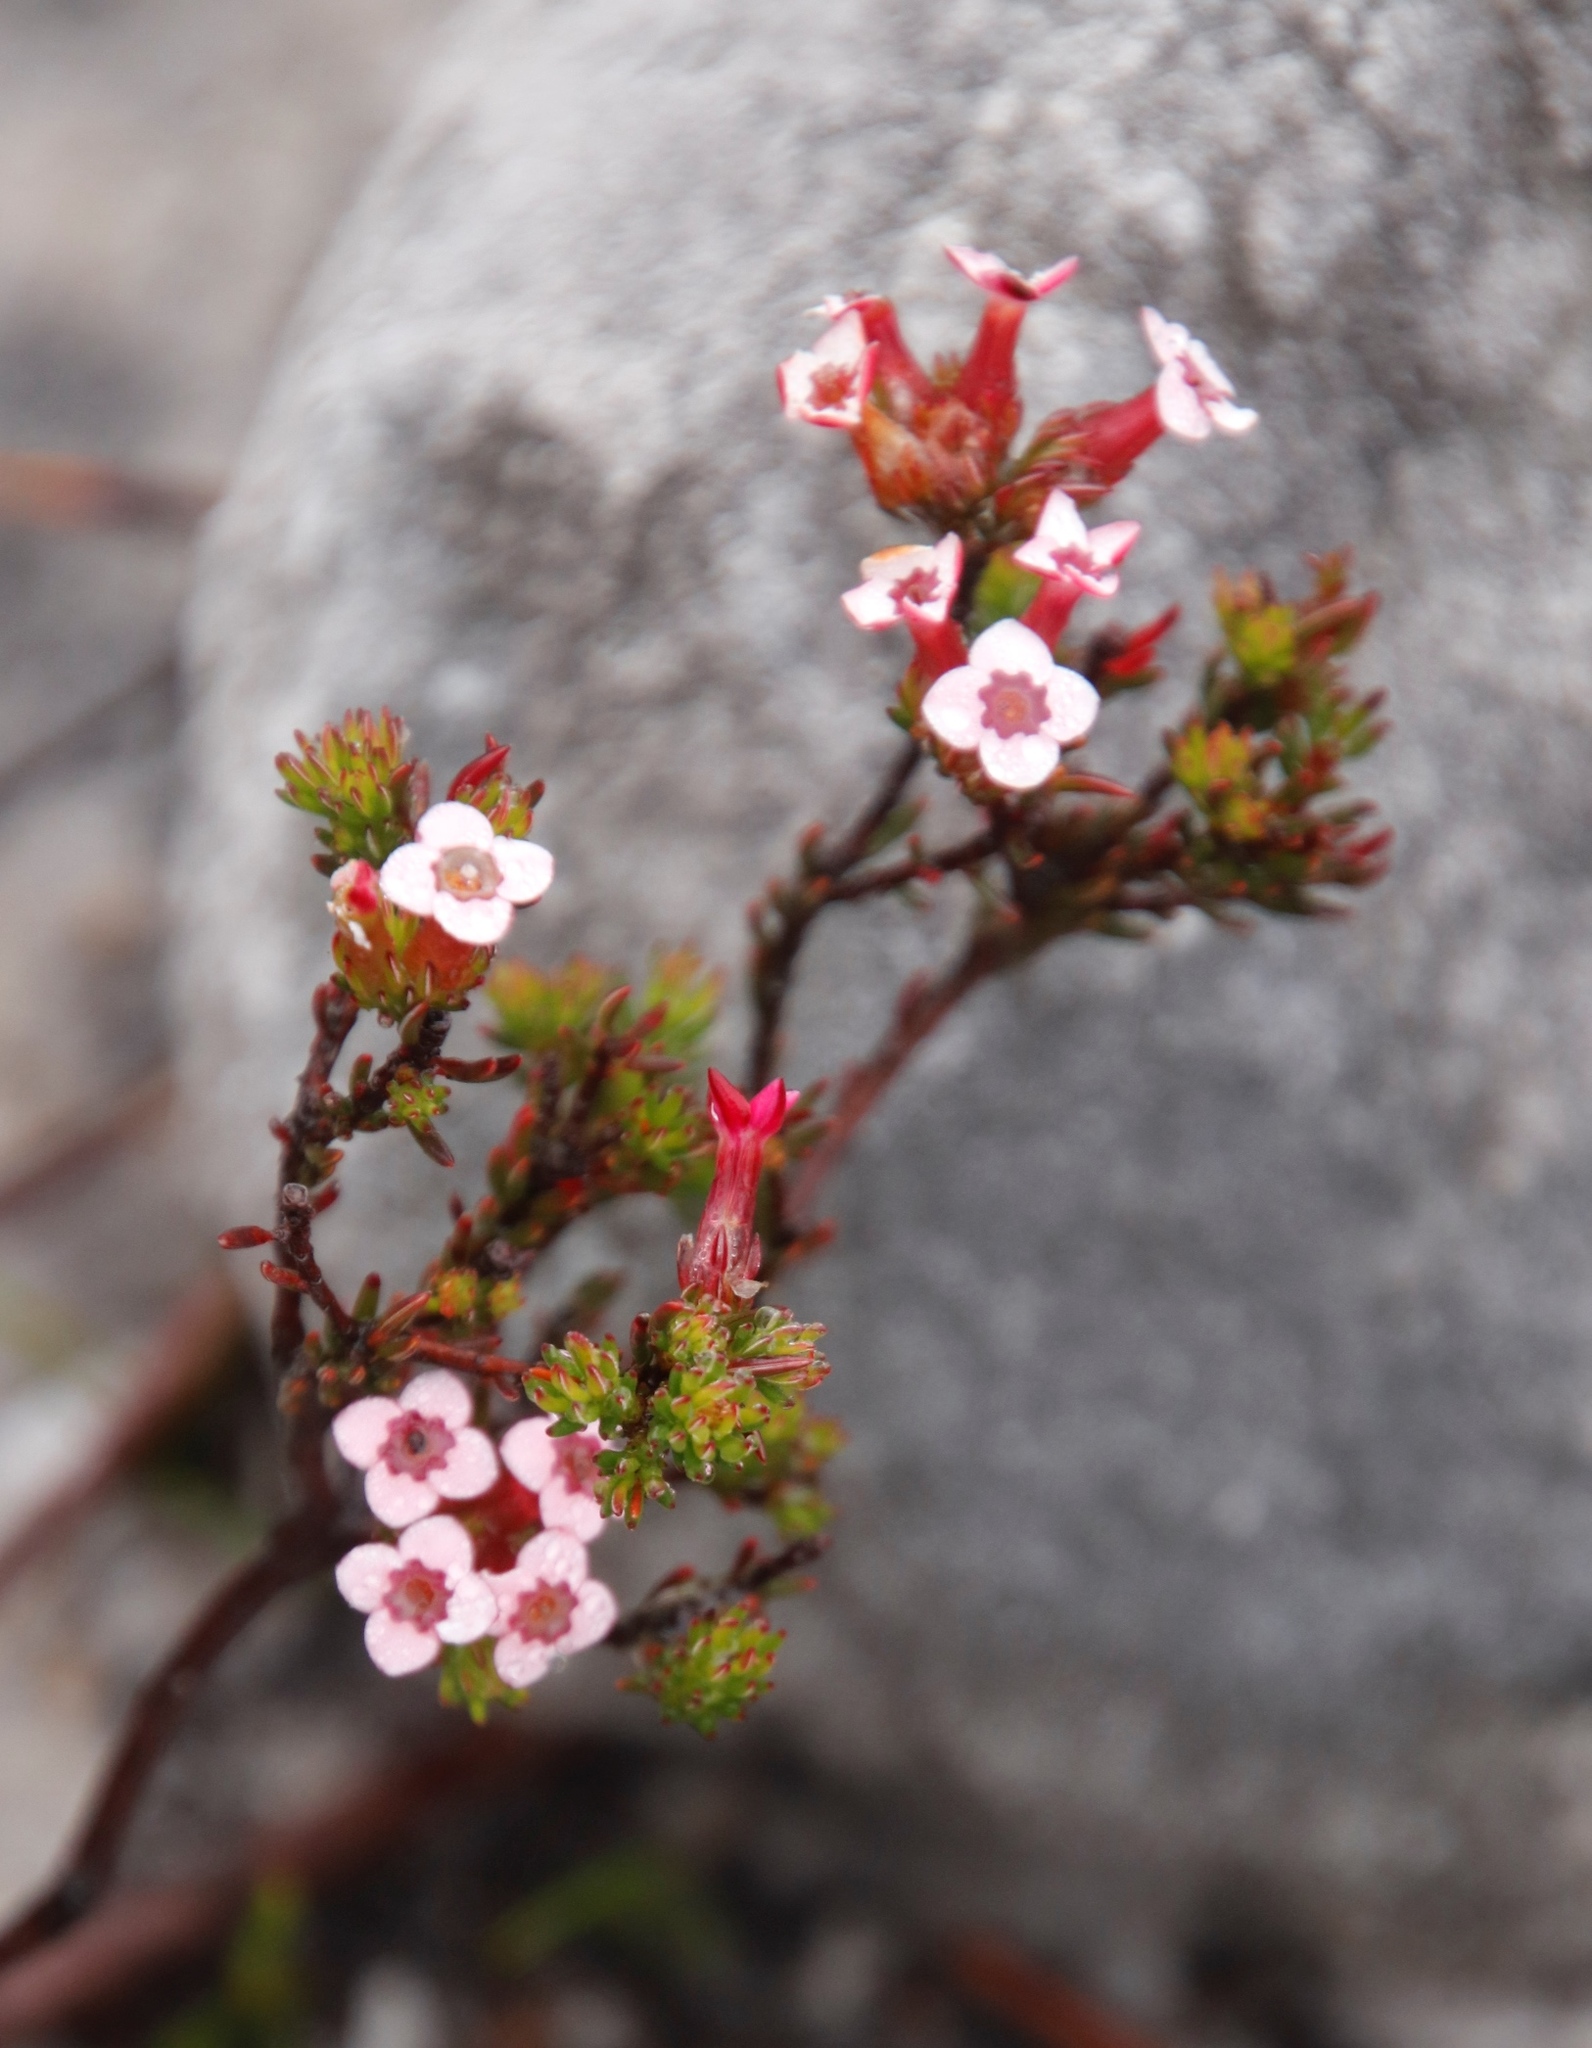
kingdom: Plantae
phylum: Tracheophyta
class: Magnoliopsida
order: Ericales
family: Ericaceae
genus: Erica
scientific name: Erica fastigiata
